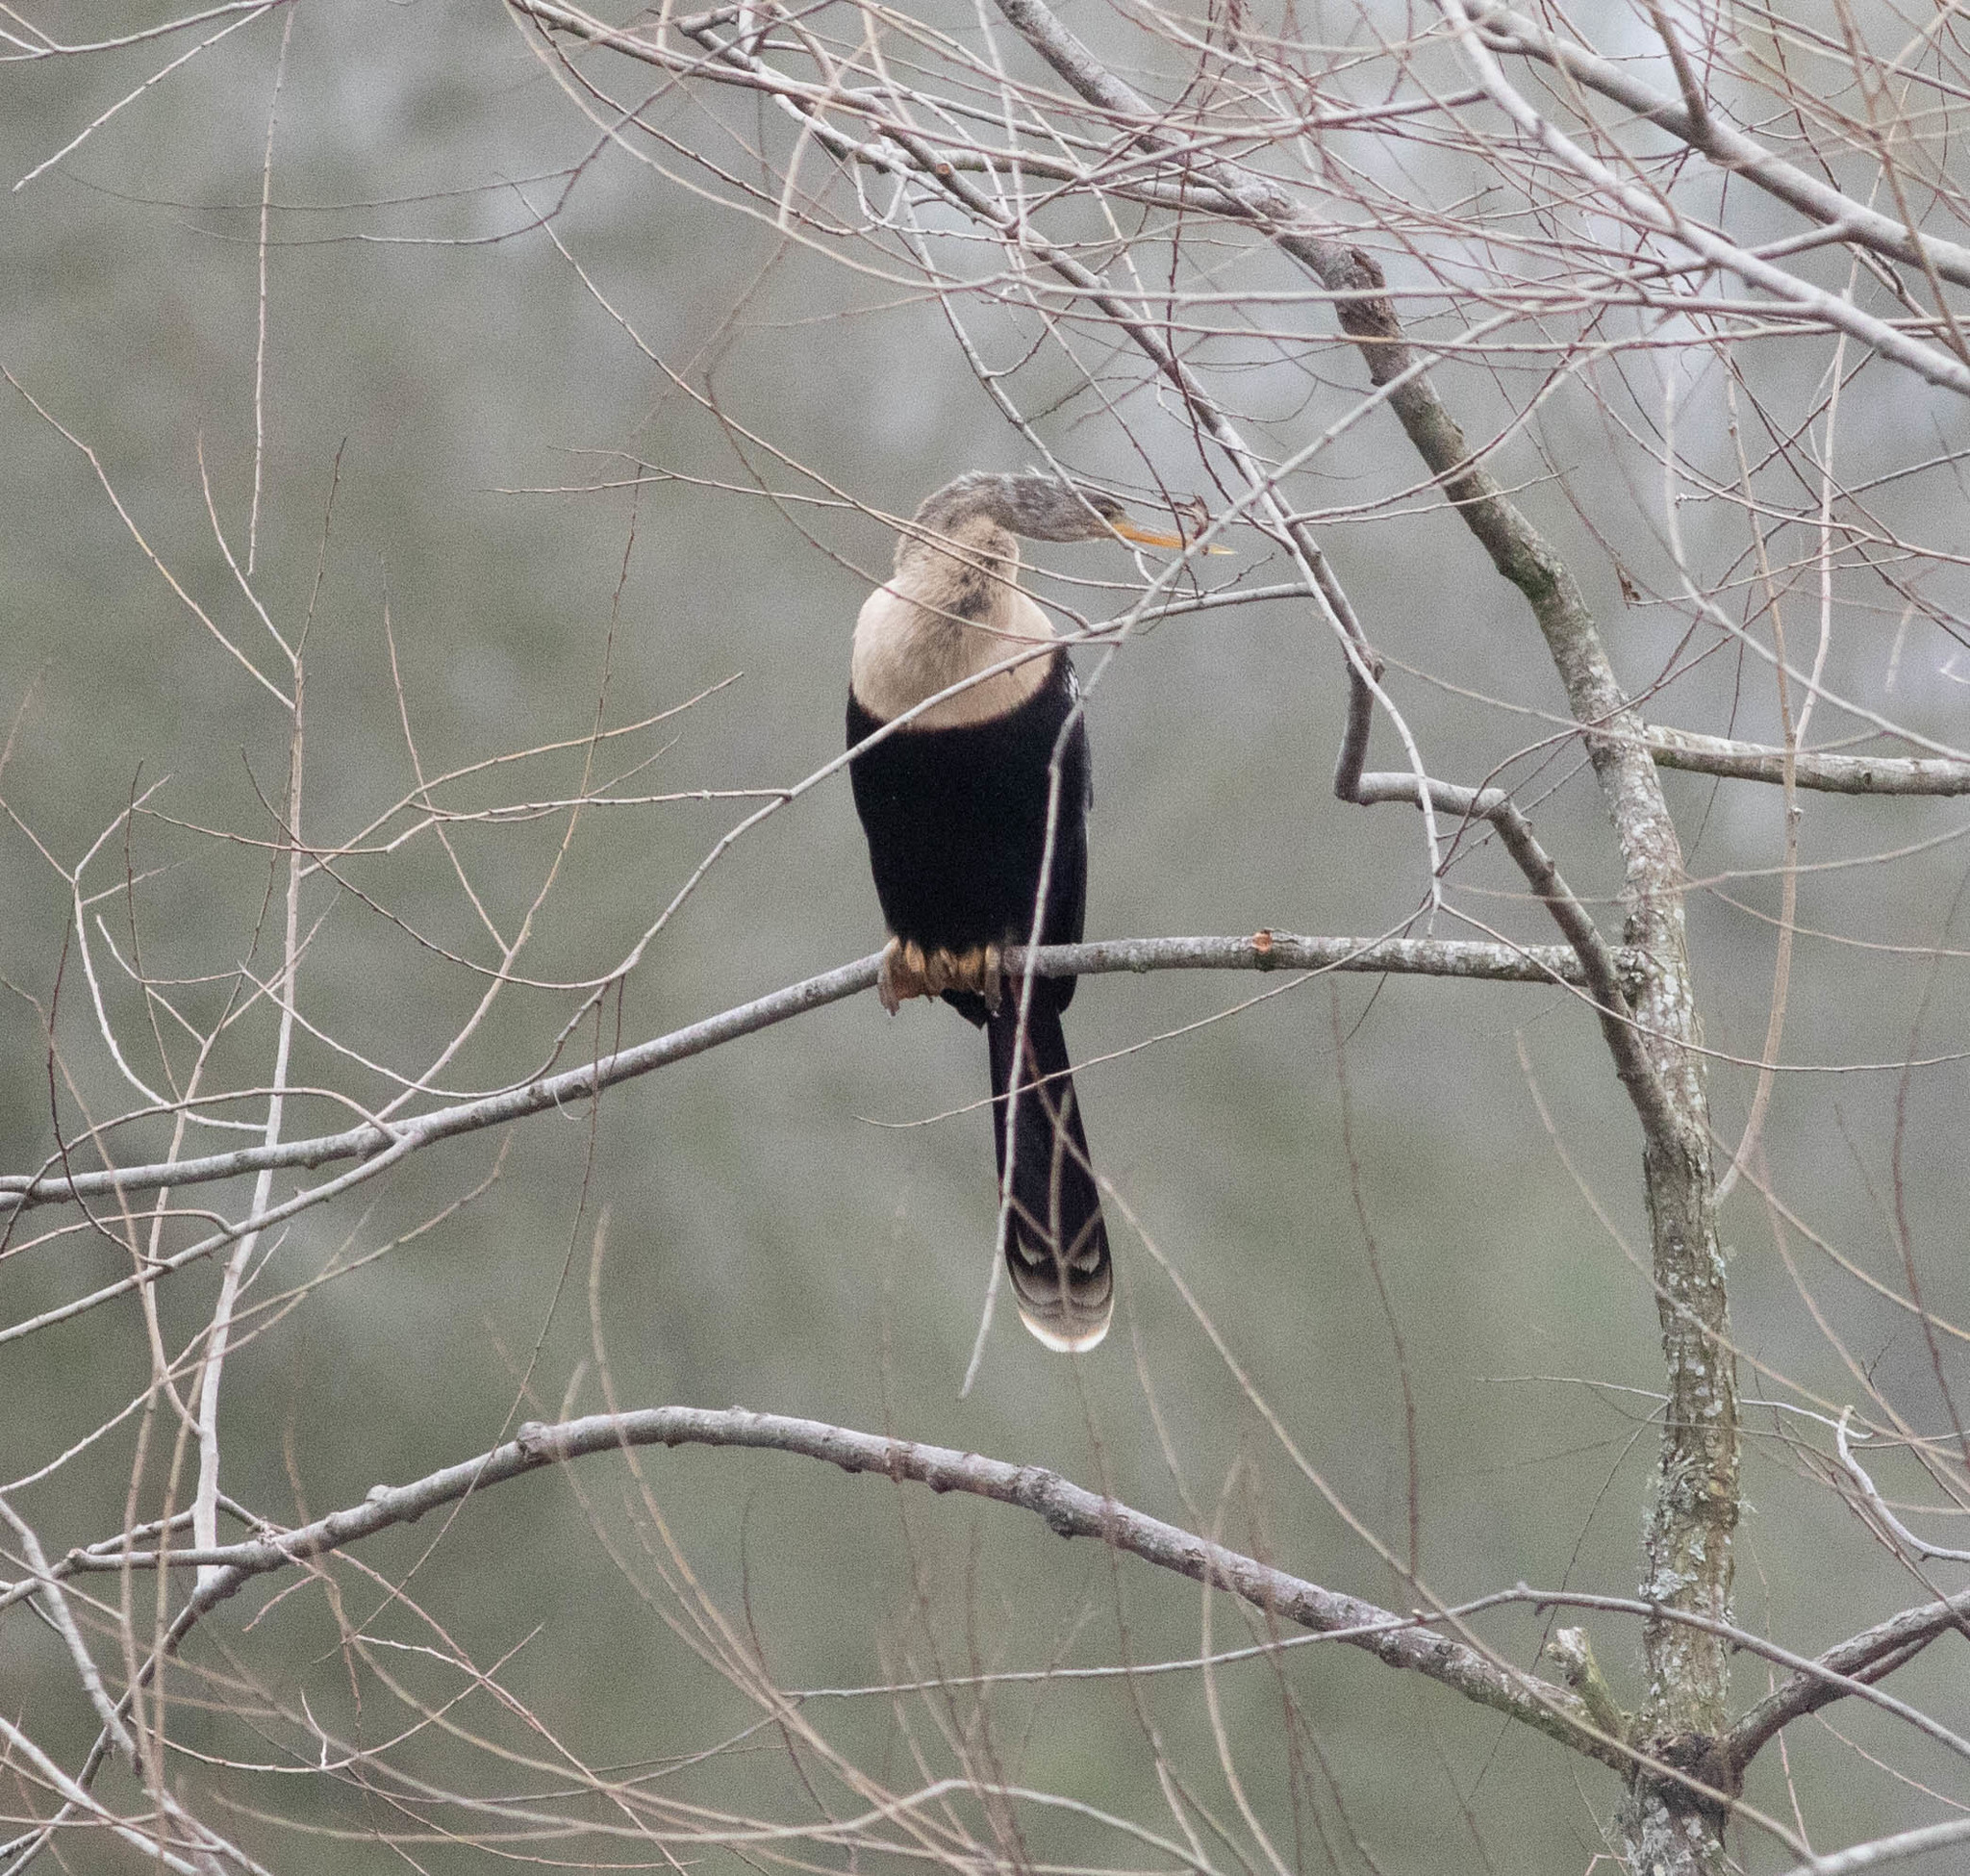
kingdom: Animalia
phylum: Chordata
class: Aves
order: Suliformes
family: Anhingidae
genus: Anhinga
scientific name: Anhinga anhinga
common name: Anhinga
